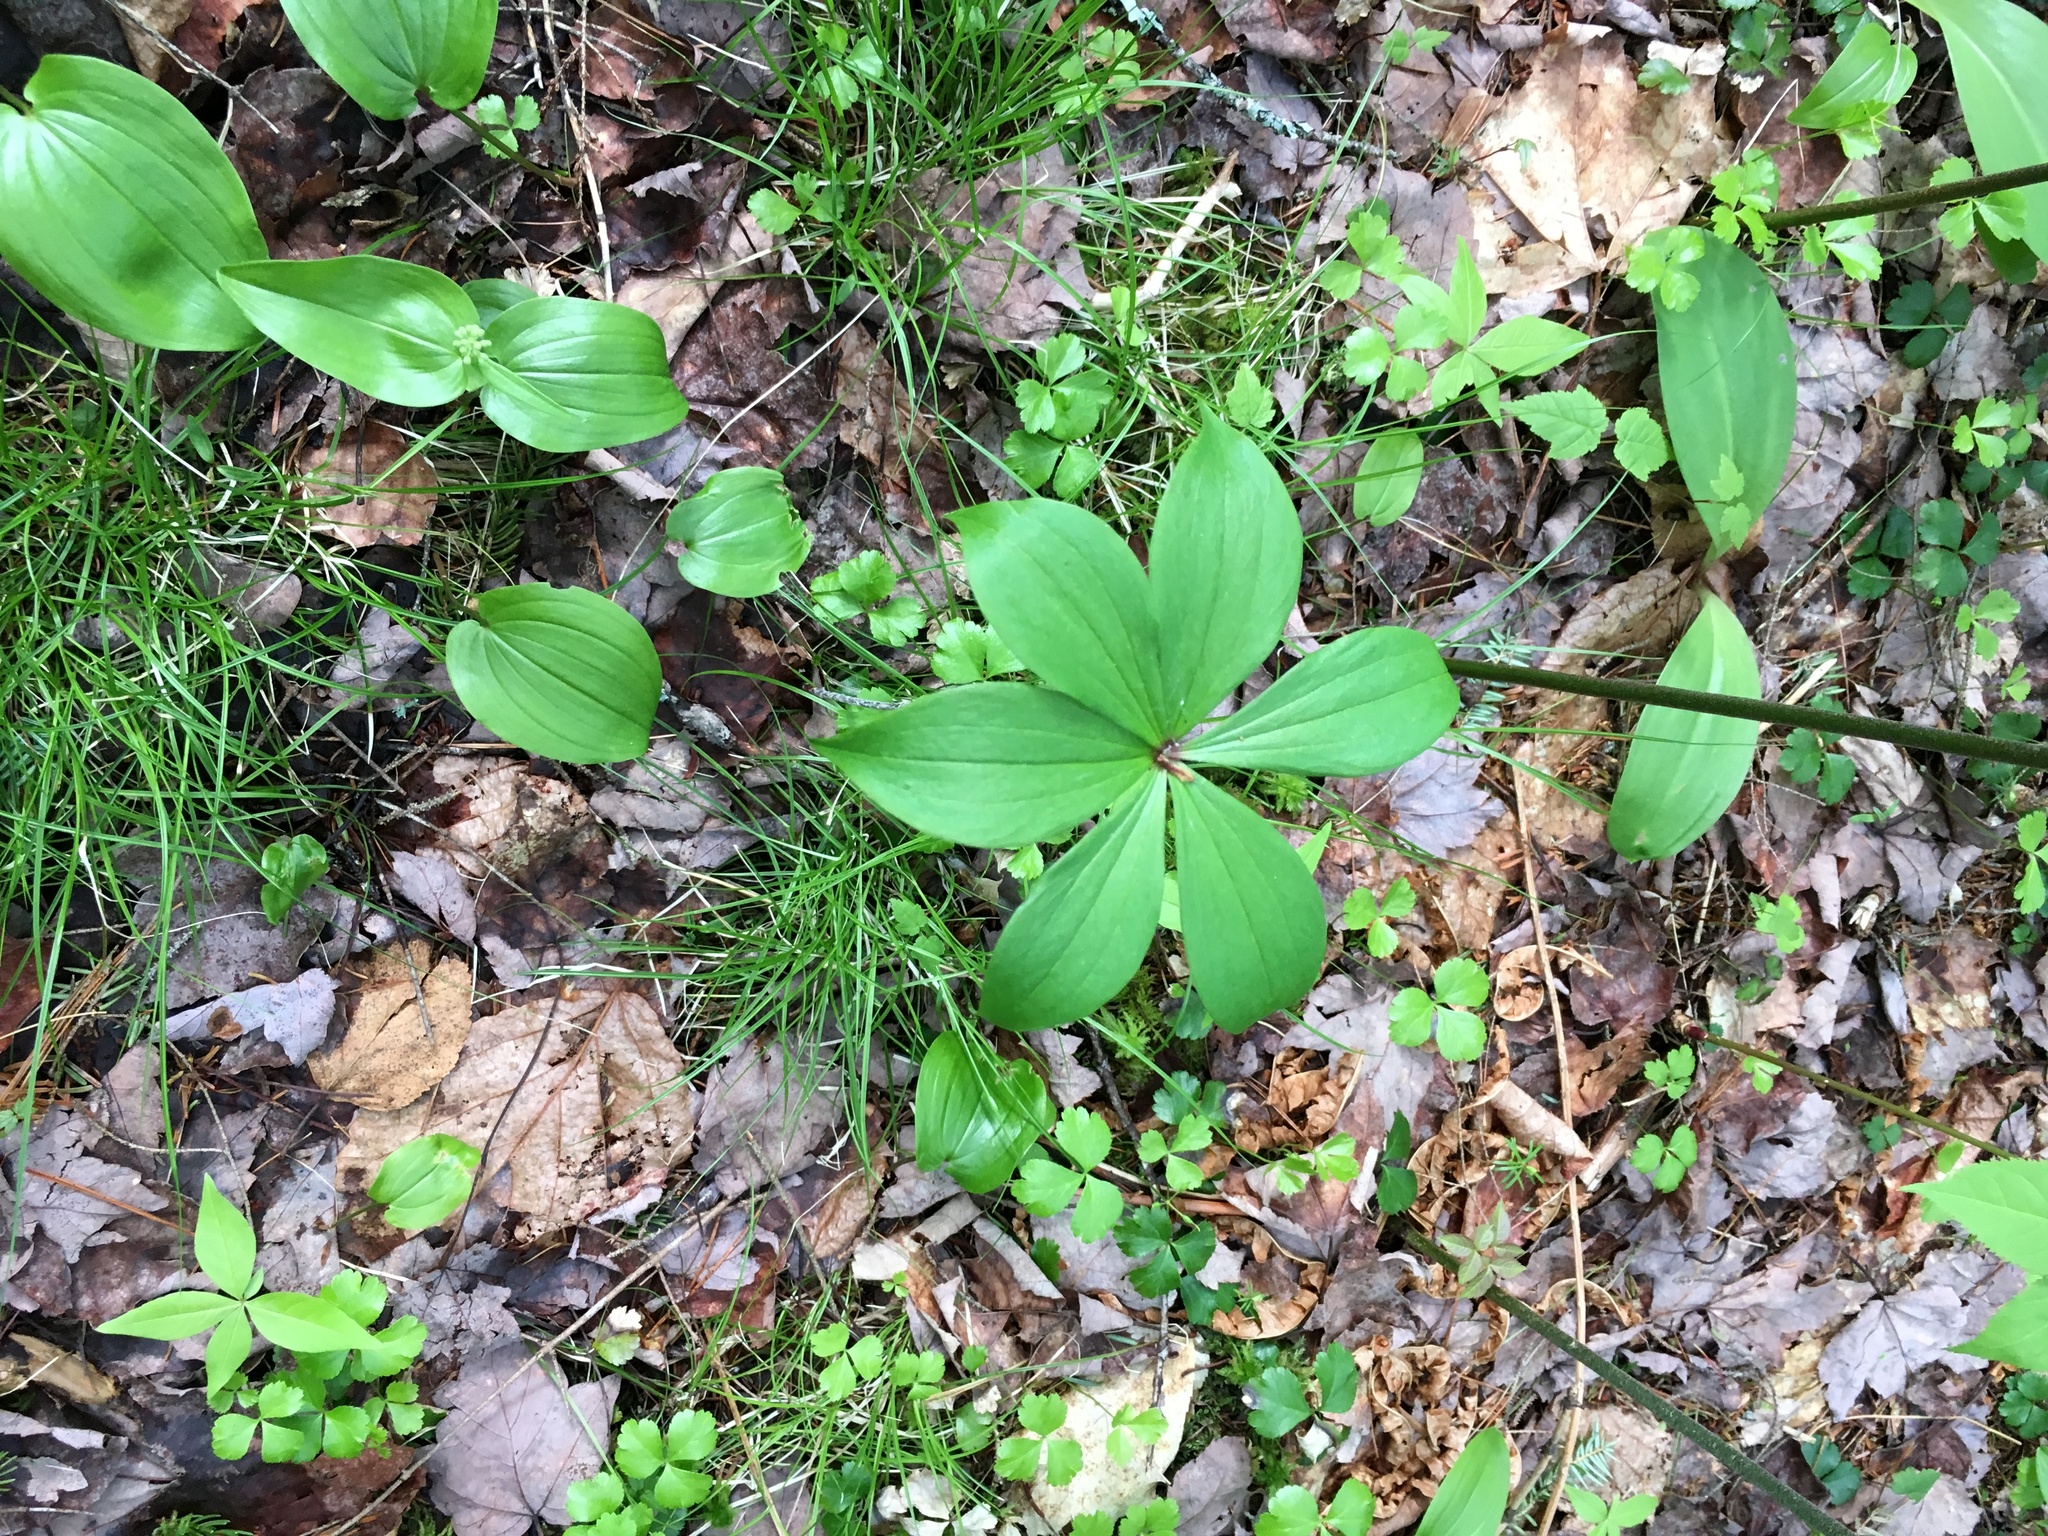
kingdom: Plantae
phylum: Tracheophyta
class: Liliopsida
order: Liliales
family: Liliaceae
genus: Medeola
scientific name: Medeola virginiana
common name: Indian cucumber-root
